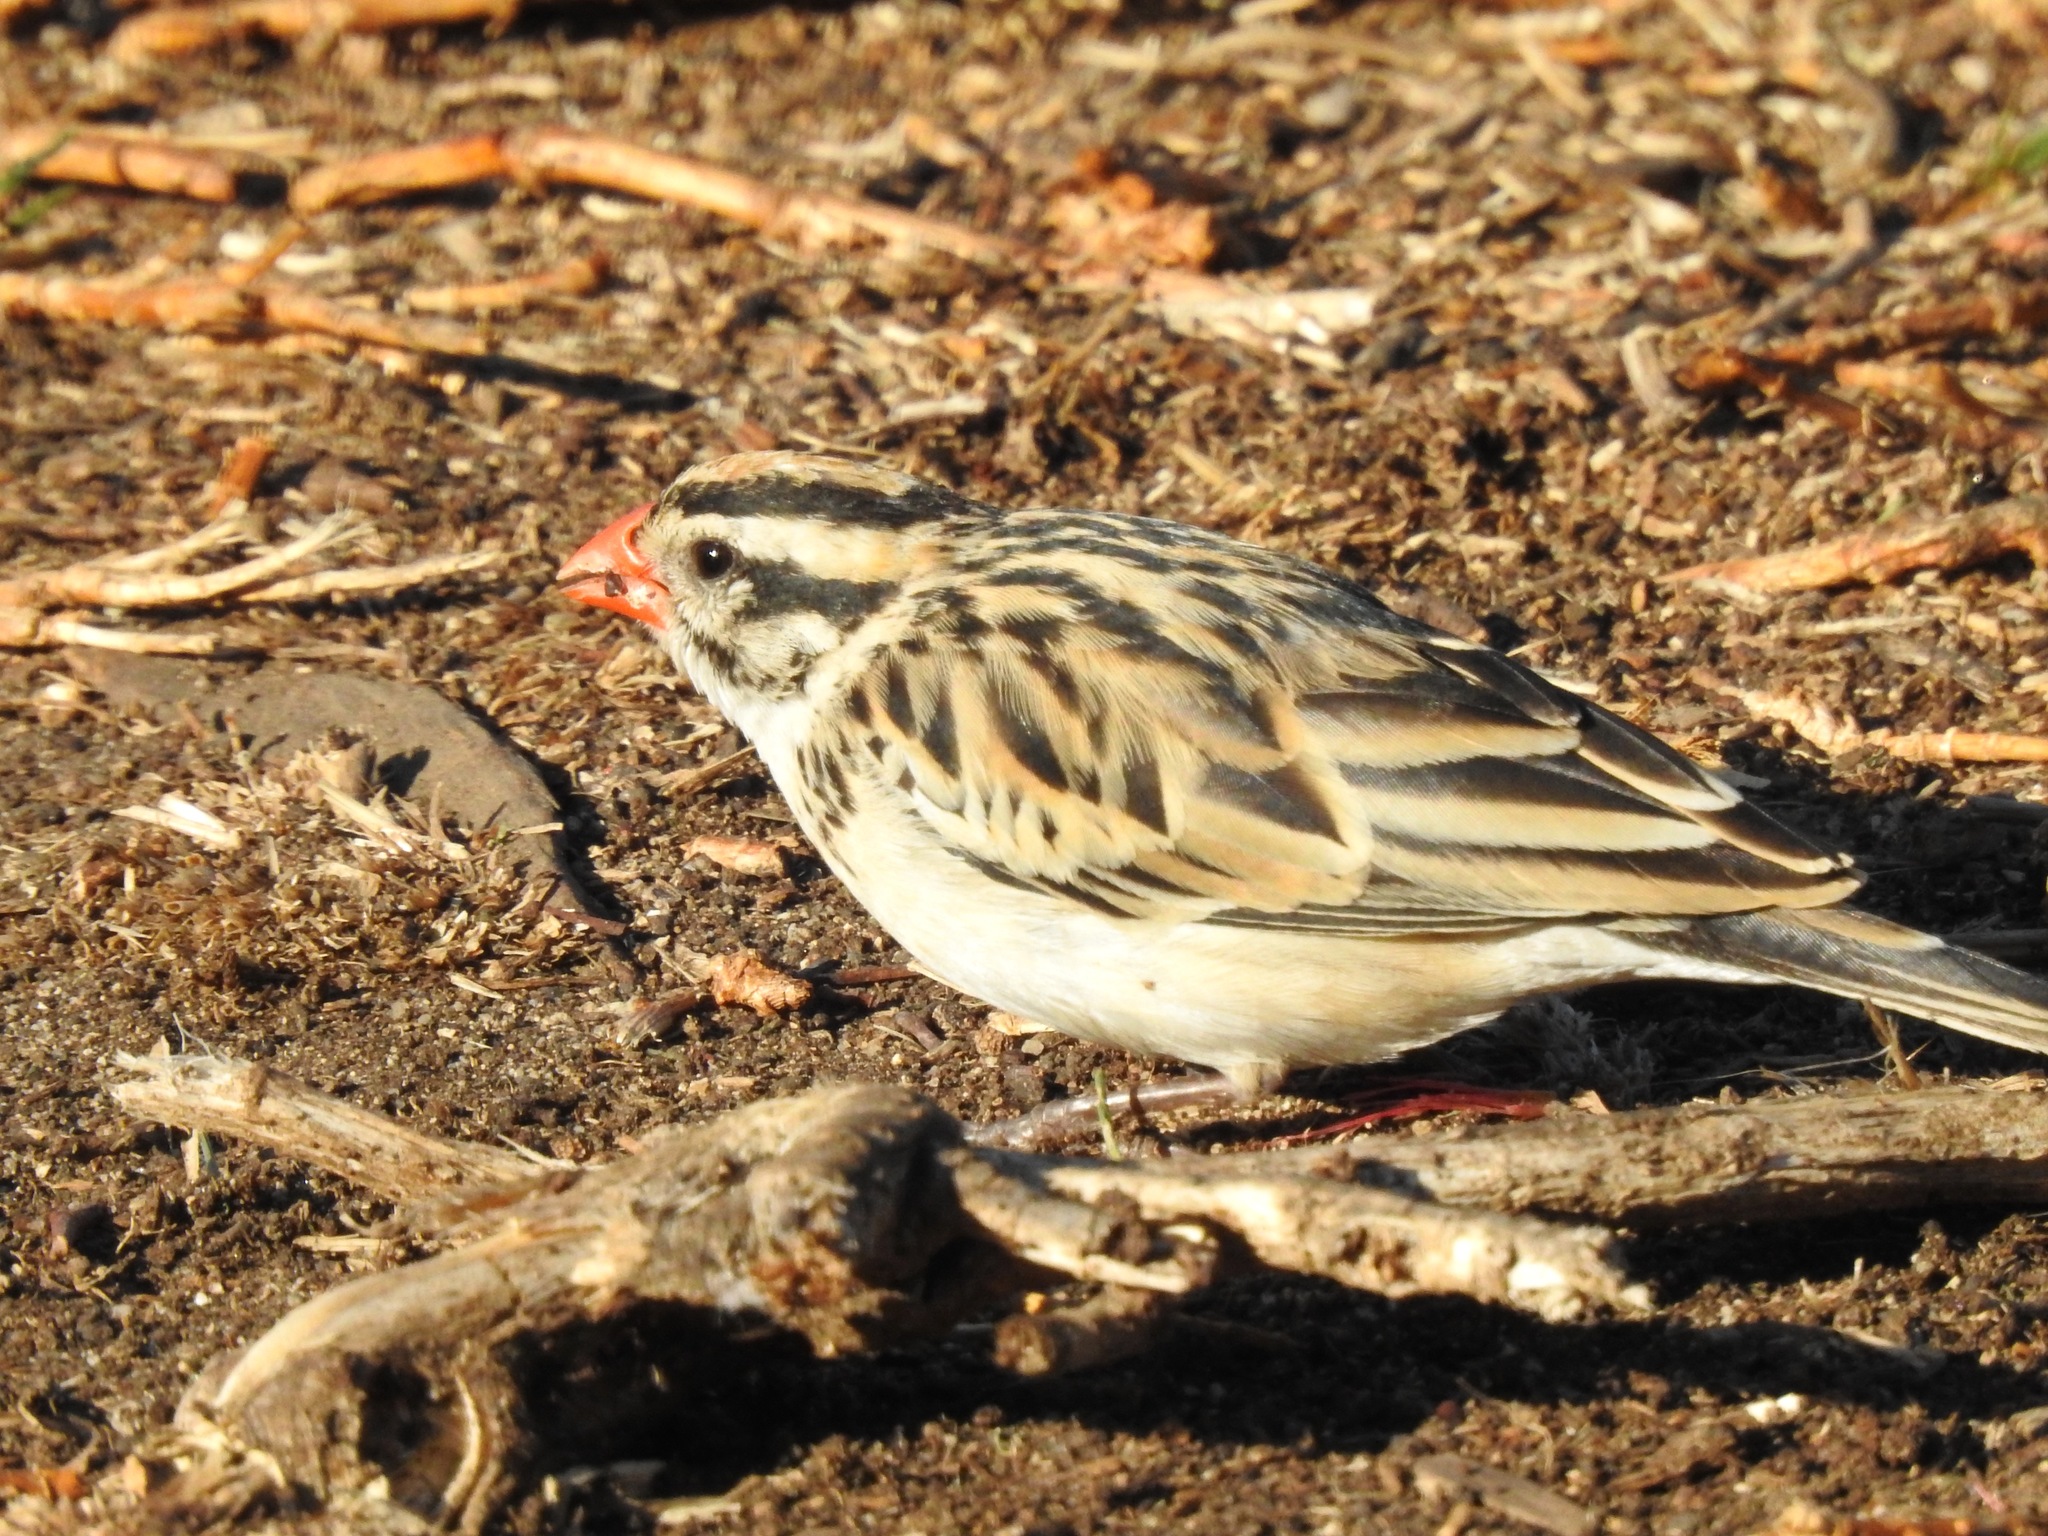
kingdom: Animalia
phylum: Chordata
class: Aves
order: Passeriformes
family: Viduidae
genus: Vidua
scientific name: Vidua macroura
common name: Pin-tailed whydah
